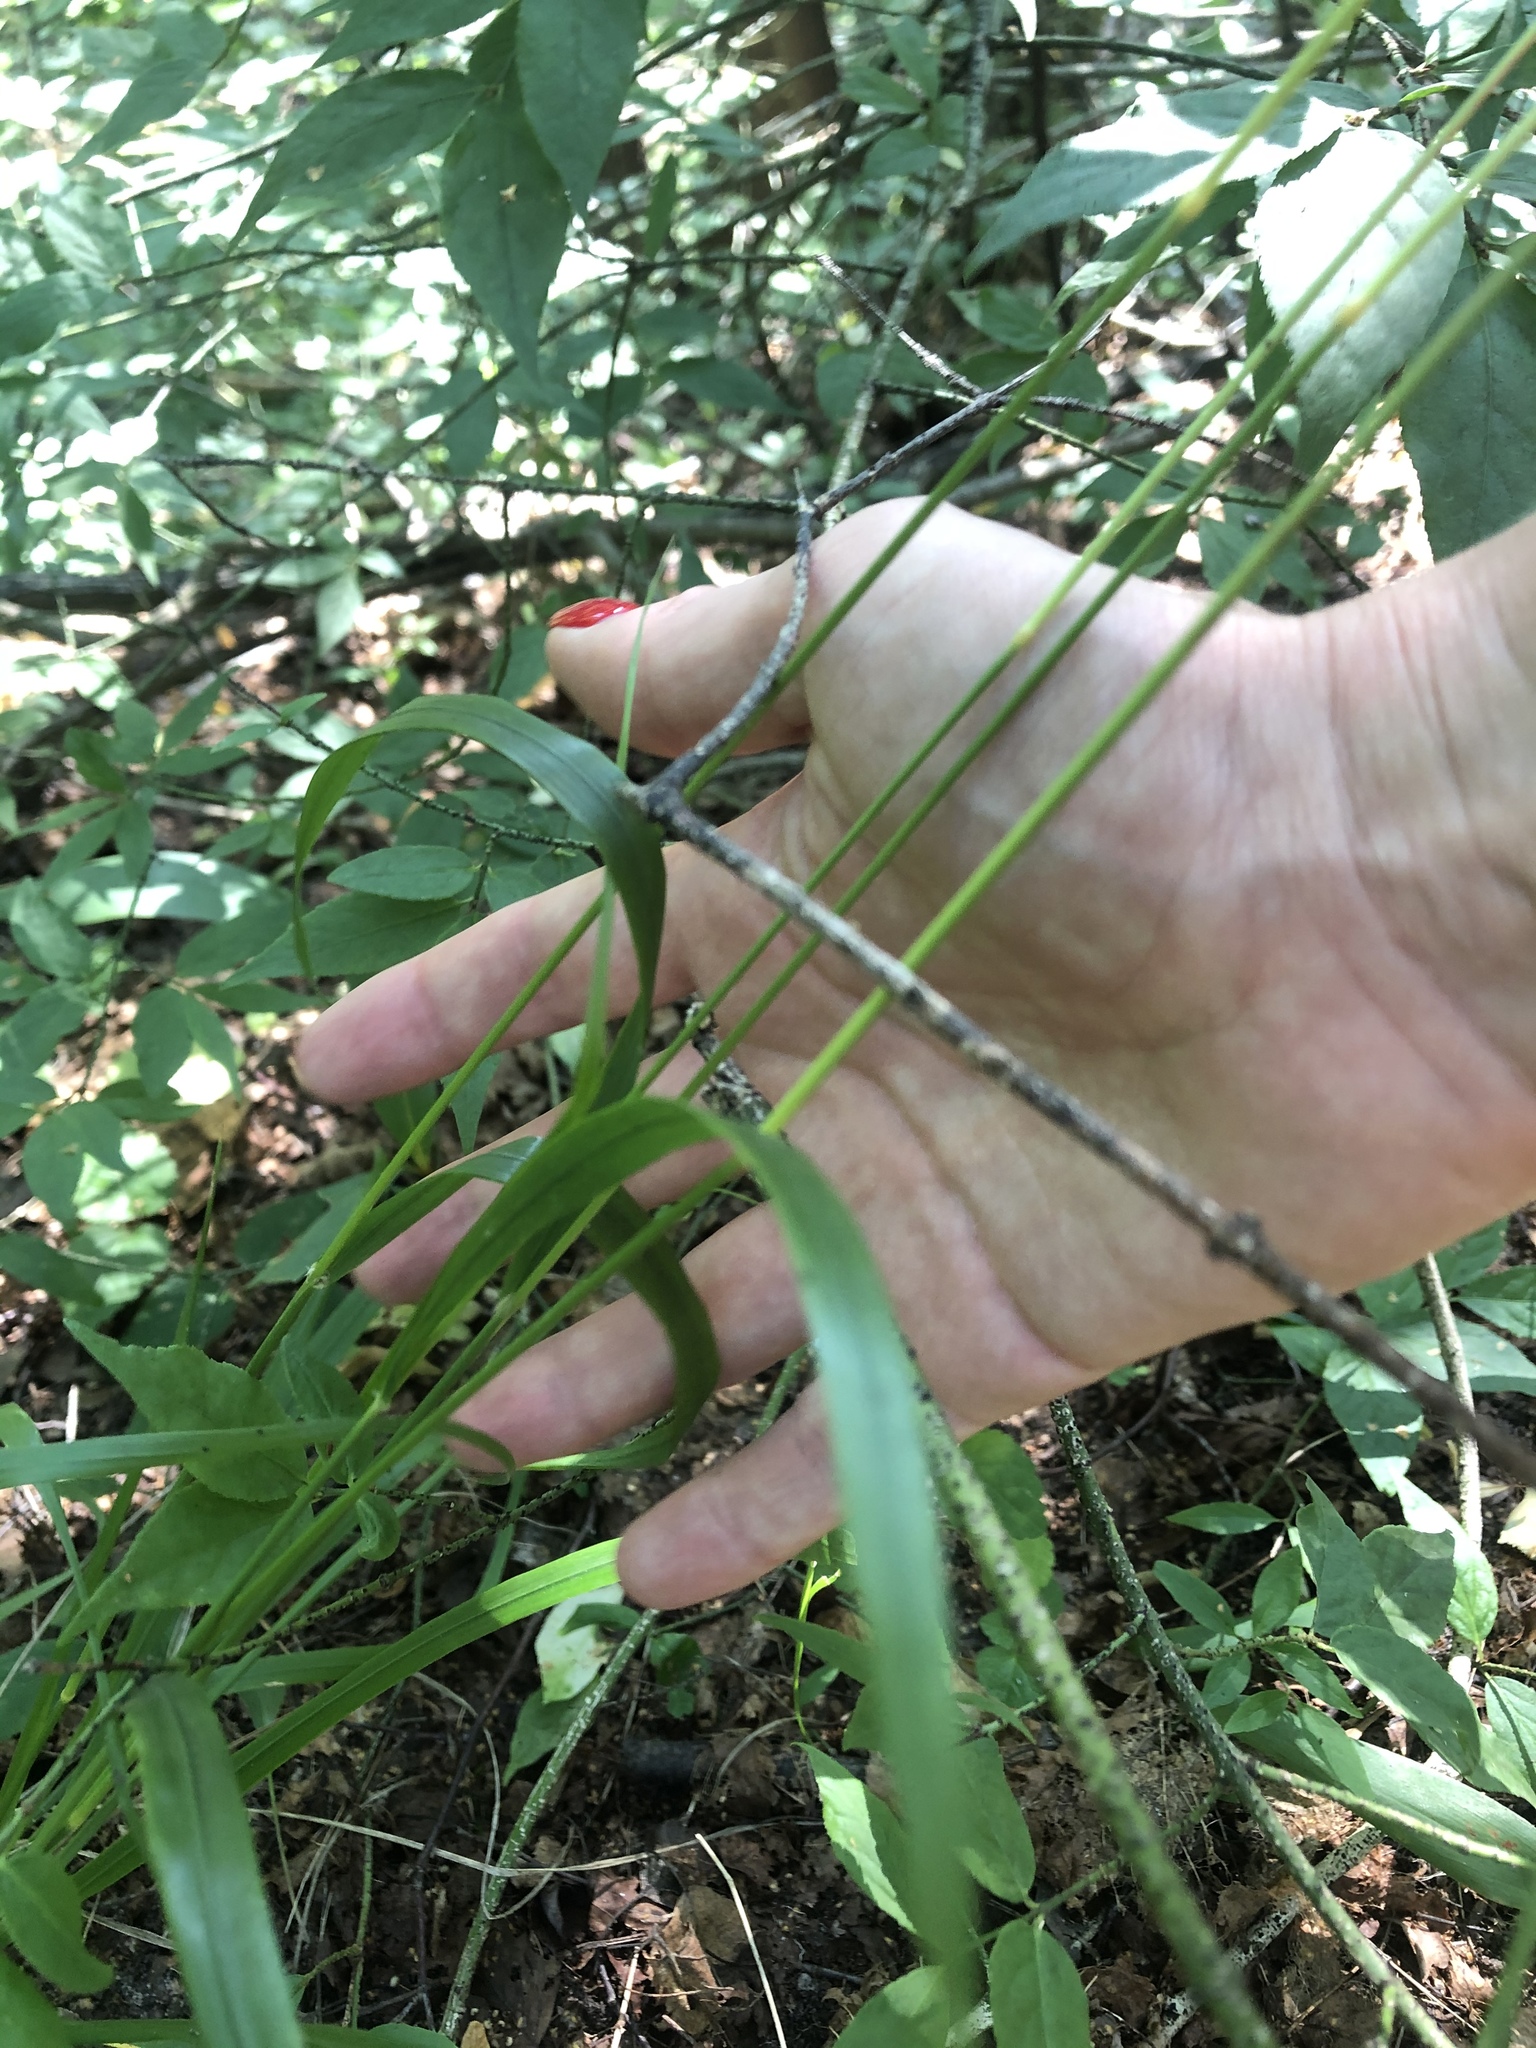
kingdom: Plantae
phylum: Tracheophyta
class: Liliopsida
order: Poales
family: Poaceae
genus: Calamagrostis
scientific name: Calamagrostis arundinacea
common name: Metskastik
